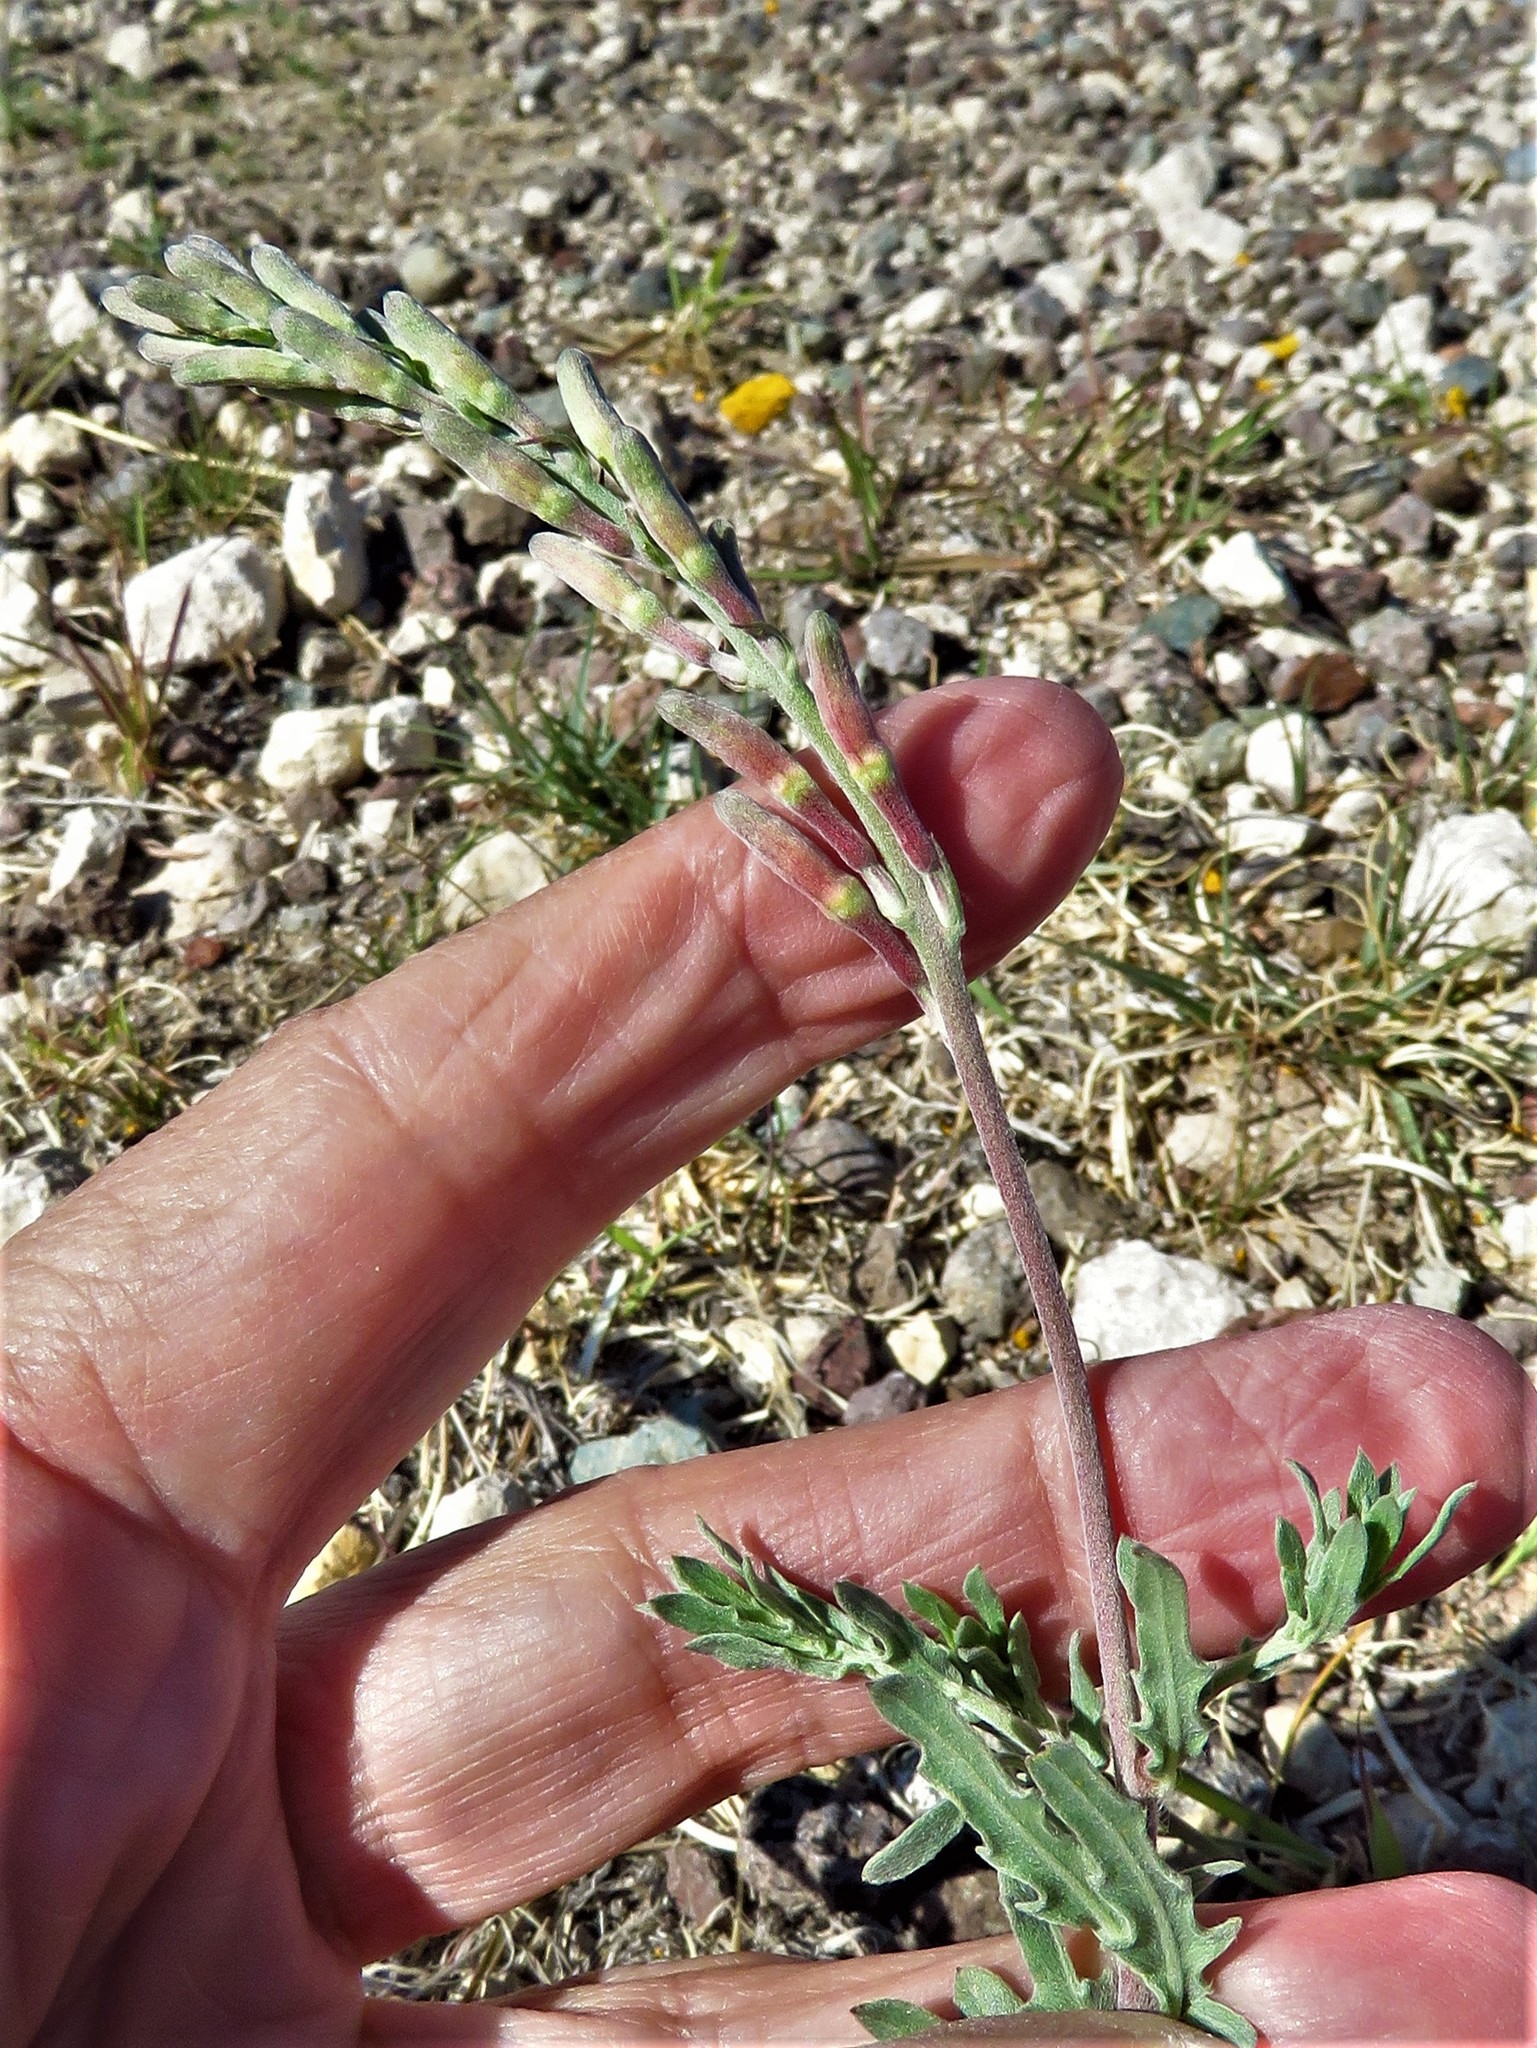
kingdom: Plantae
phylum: Tracheophyta
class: Magnoliopsida
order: Myrtales
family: Onagraceae
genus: Oenothera
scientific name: Oenothera suffrutescens
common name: Scarlet beeblossom
